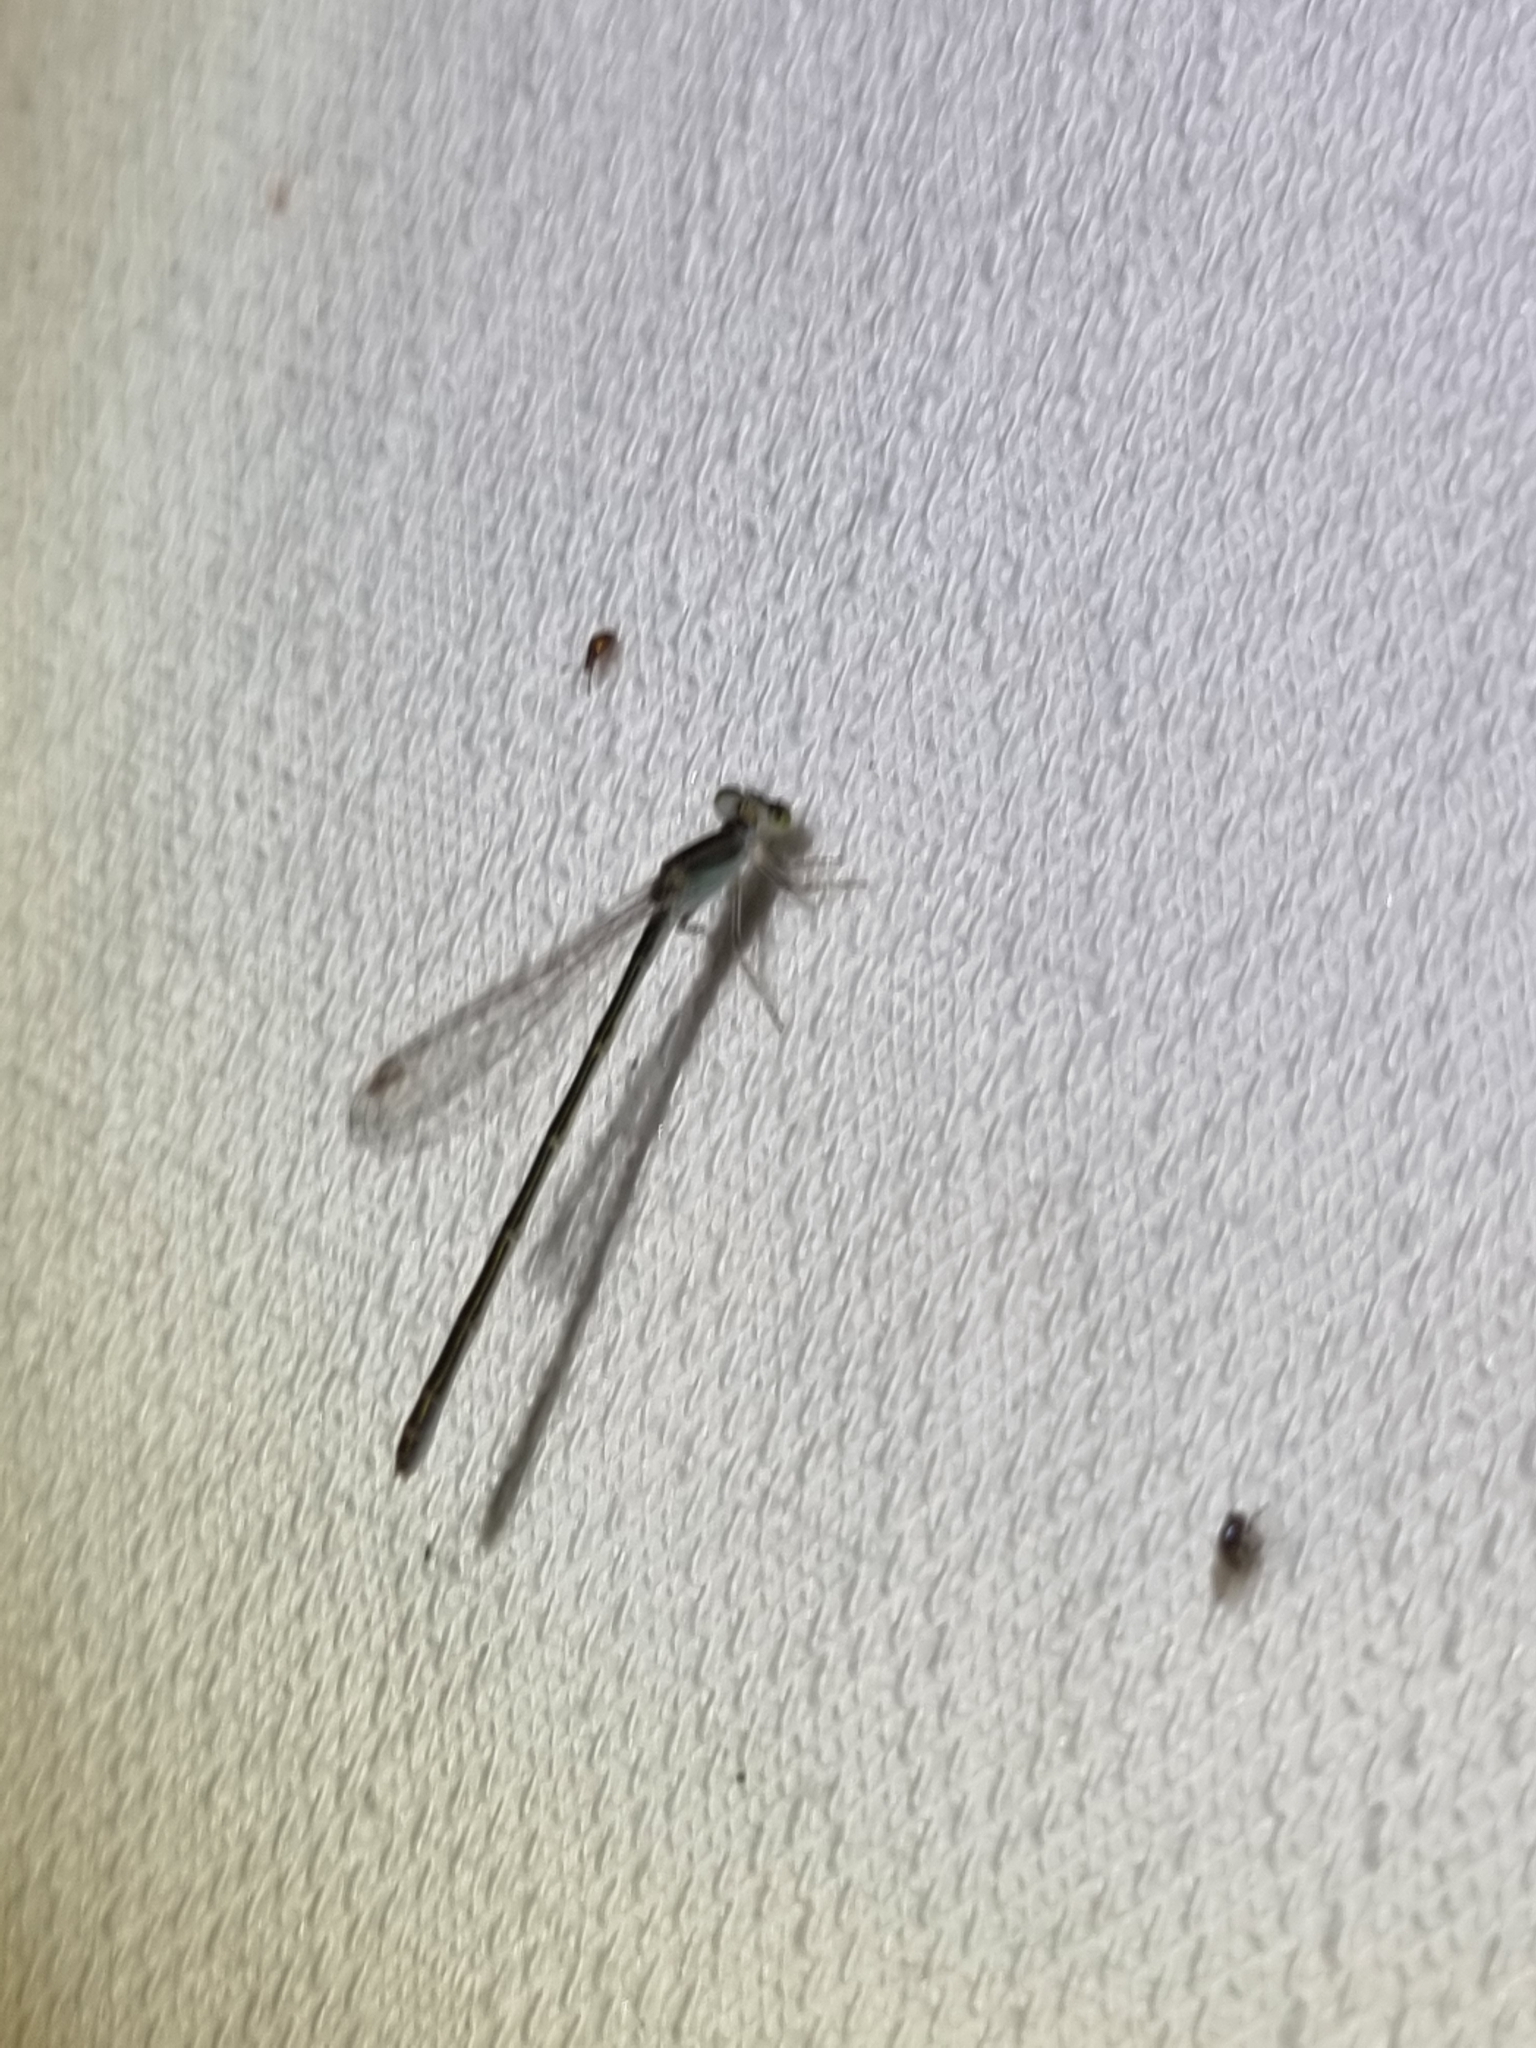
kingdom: Animalia
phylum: Arthropoda
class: Insecta
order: Odonata
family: Coenagrionidae
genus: Ischnura
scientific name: Ischnura aurora
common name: Gossamer damselfly
